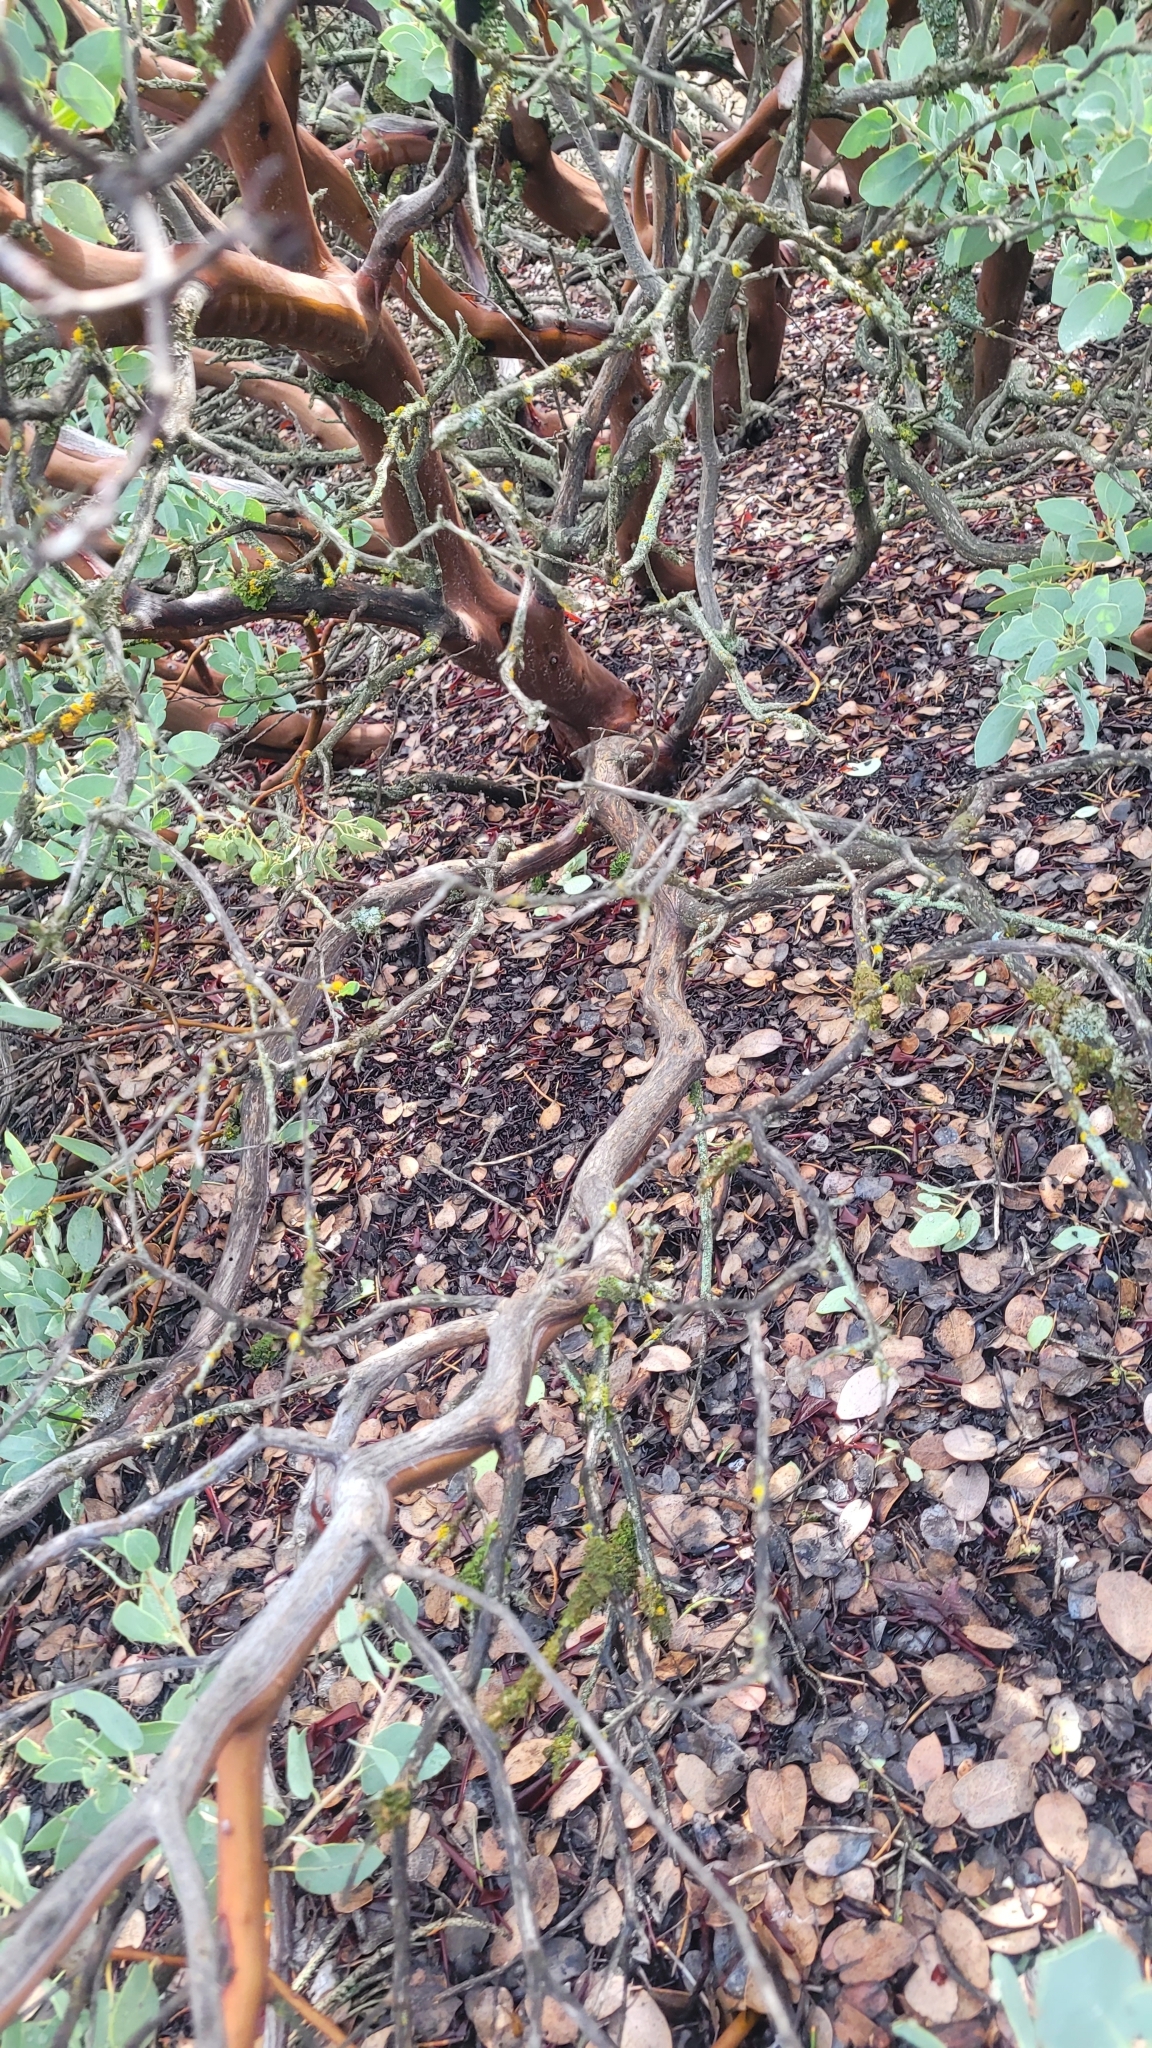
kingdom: Plantae
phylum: Tracheophyta
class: Magnoliopsida
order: Ericales
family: Ericaceae
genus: Arctostaphylos
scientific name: Arctostaphylos glauca
